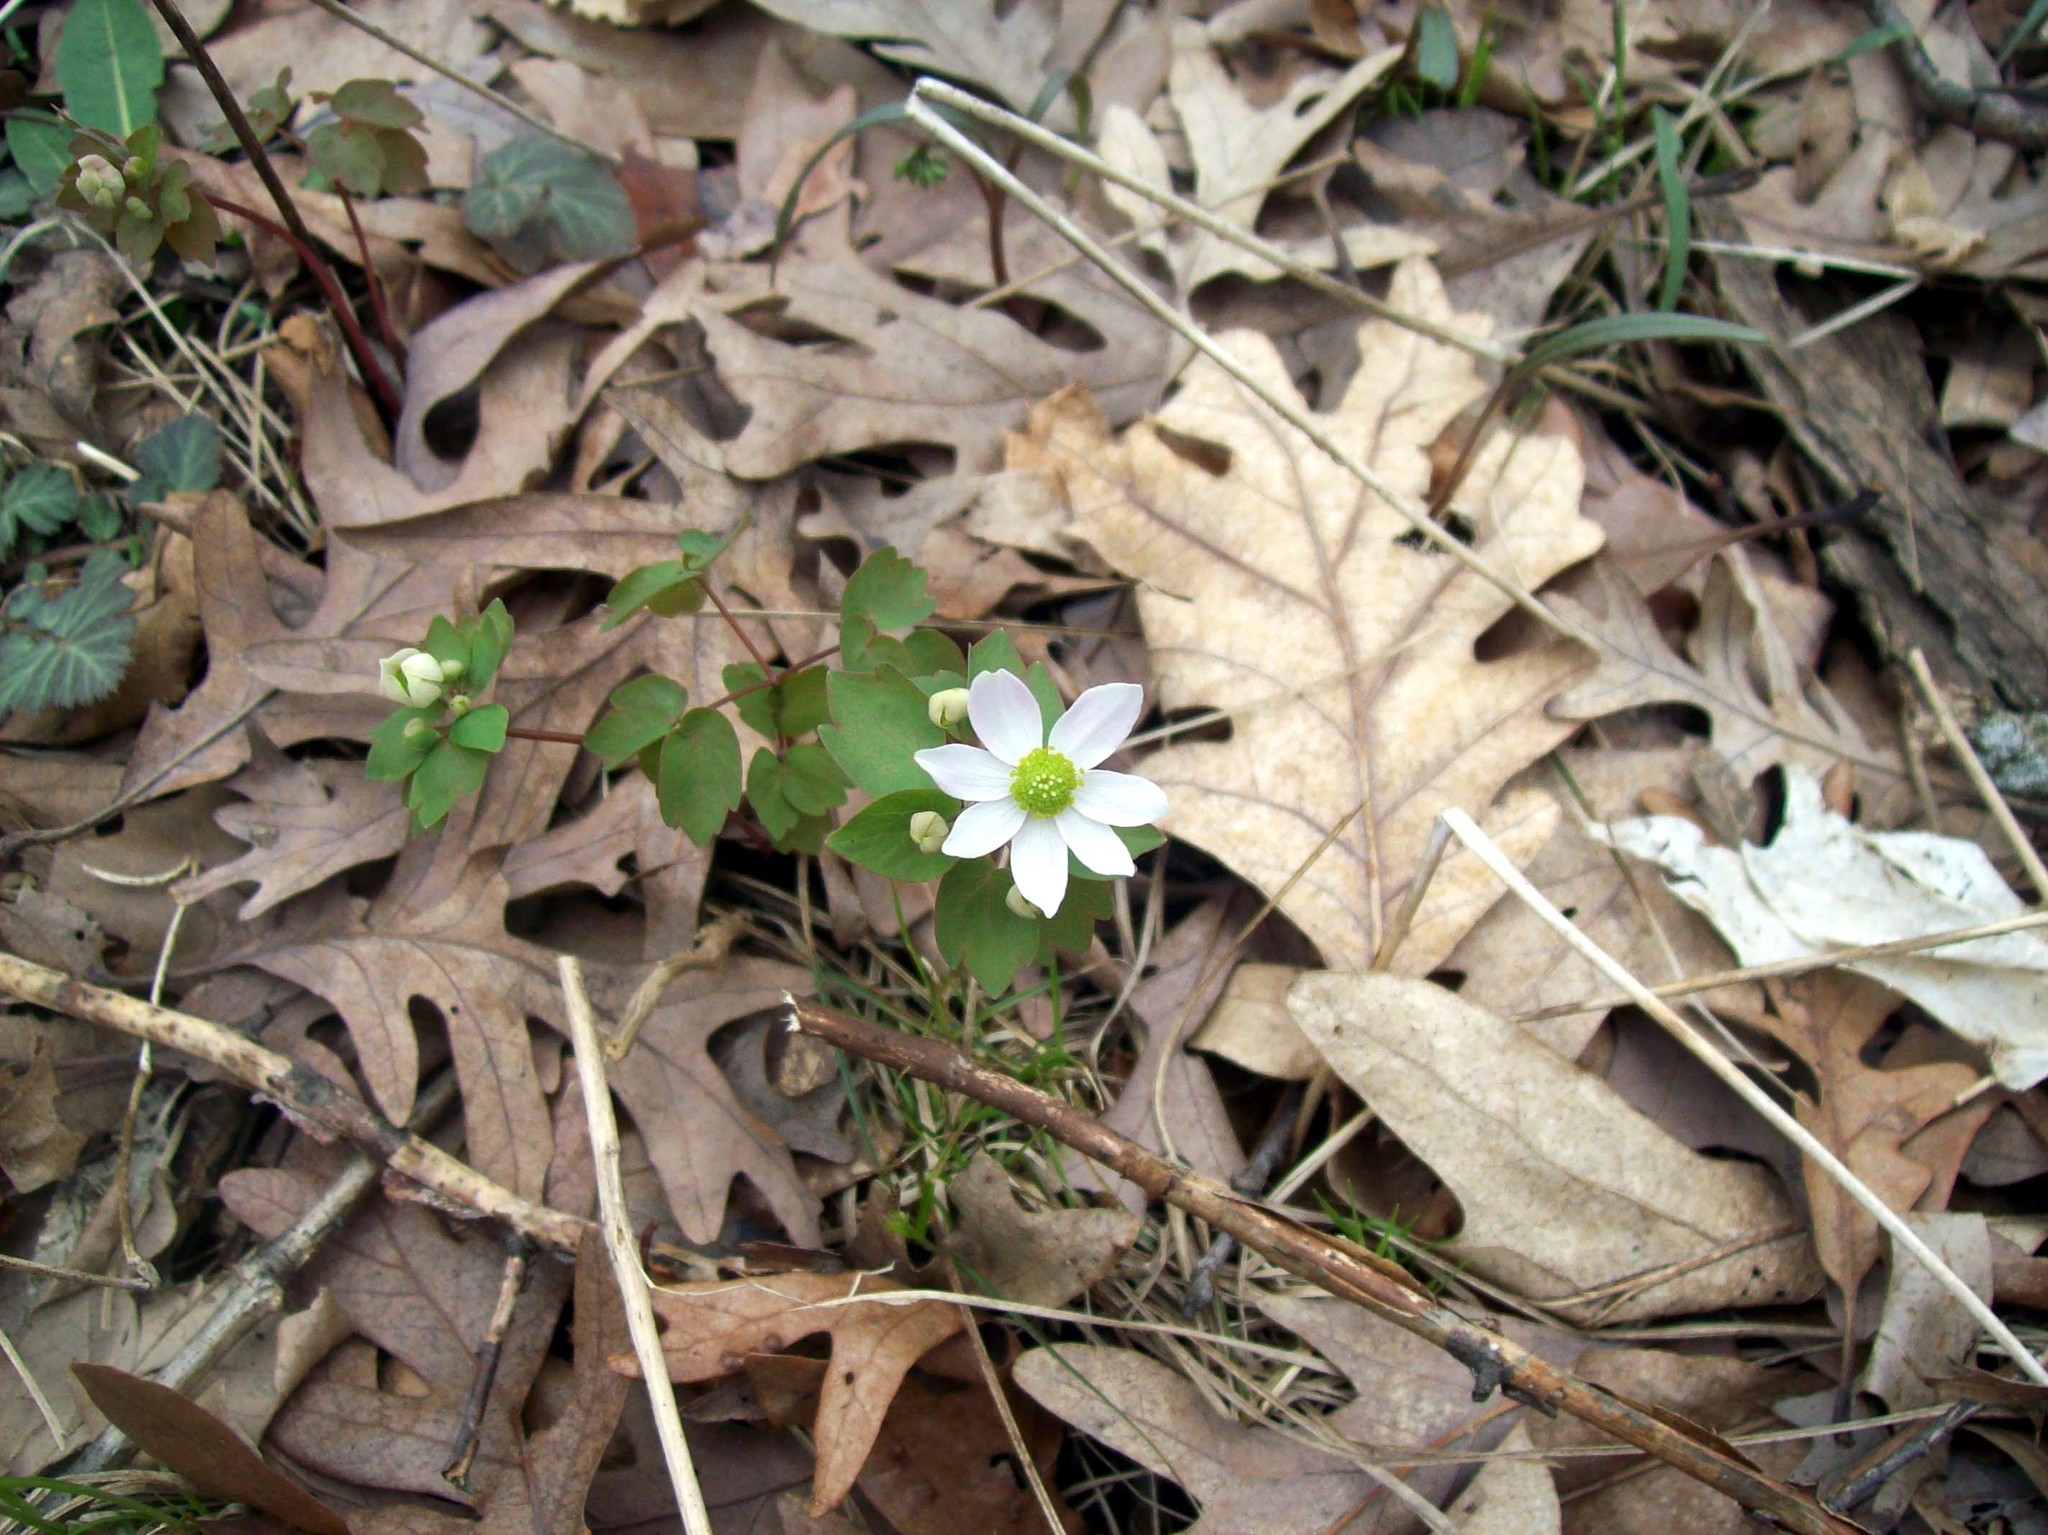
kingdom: Plantae
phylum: Tracheophyta
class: Magnoliopsida
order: Ranunculales
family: Ranunculaceae
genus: Thalictrum
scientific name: Thalictrum thalictroides
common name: Rue-anemone
